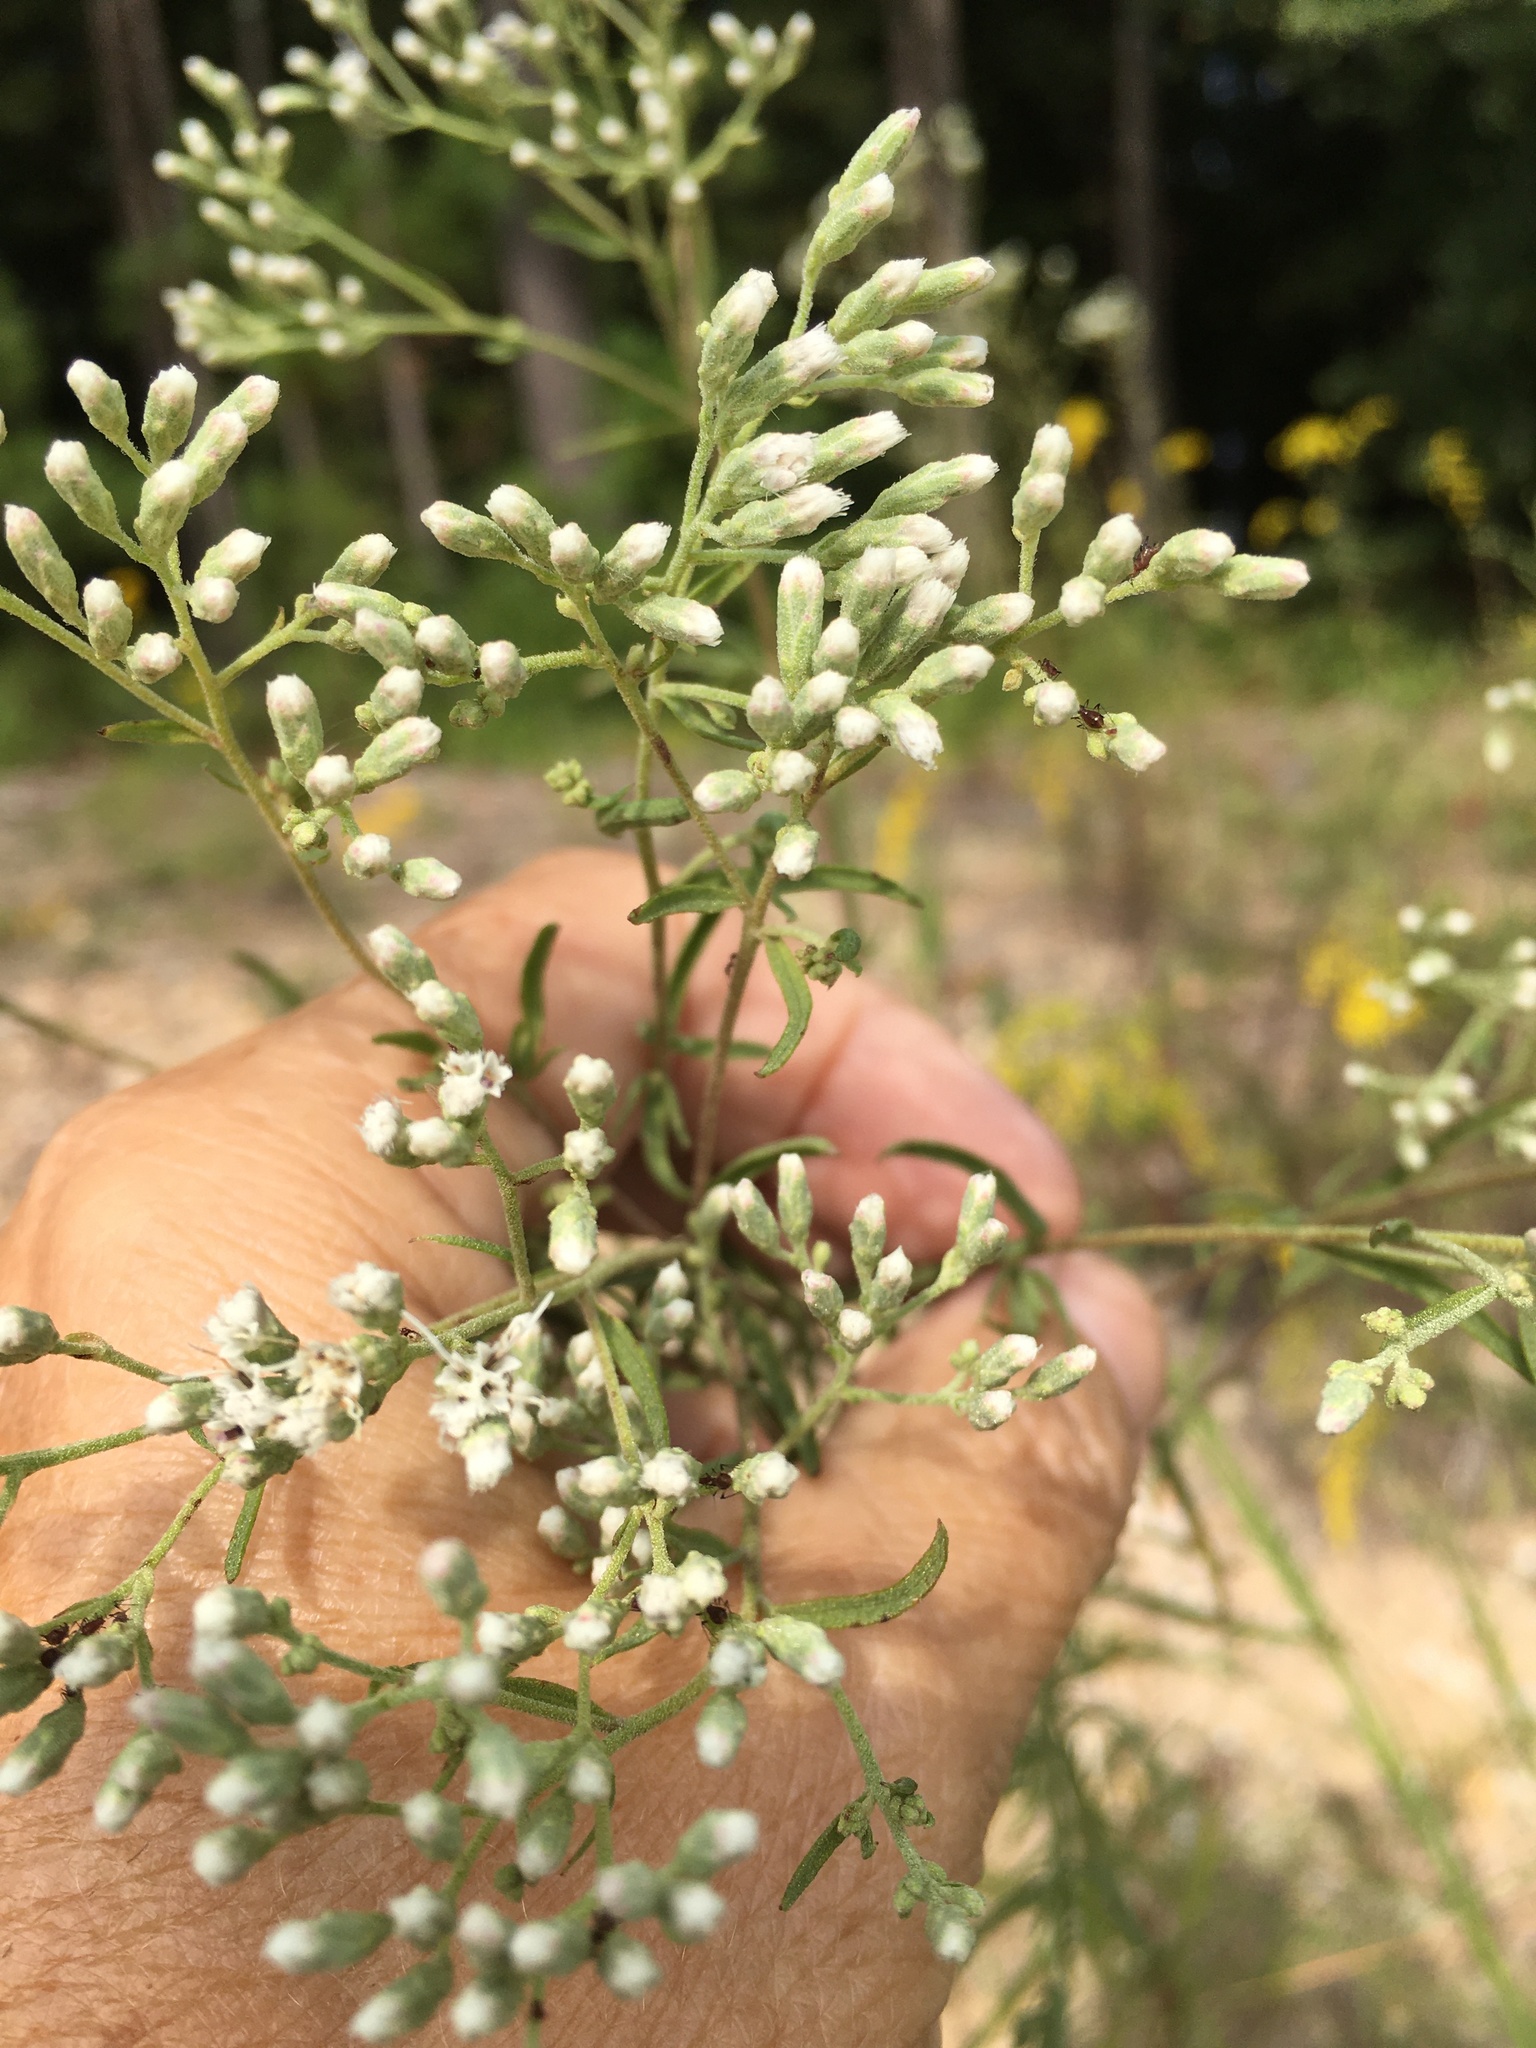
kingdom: Plantae
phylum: Tracheophyta
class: Magnoliopsida
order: Asterales
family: Asteraceae
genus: Eupatorium
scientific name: Eupatorium hyssopifolium
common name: Hyssop-leaf thoroughwort
